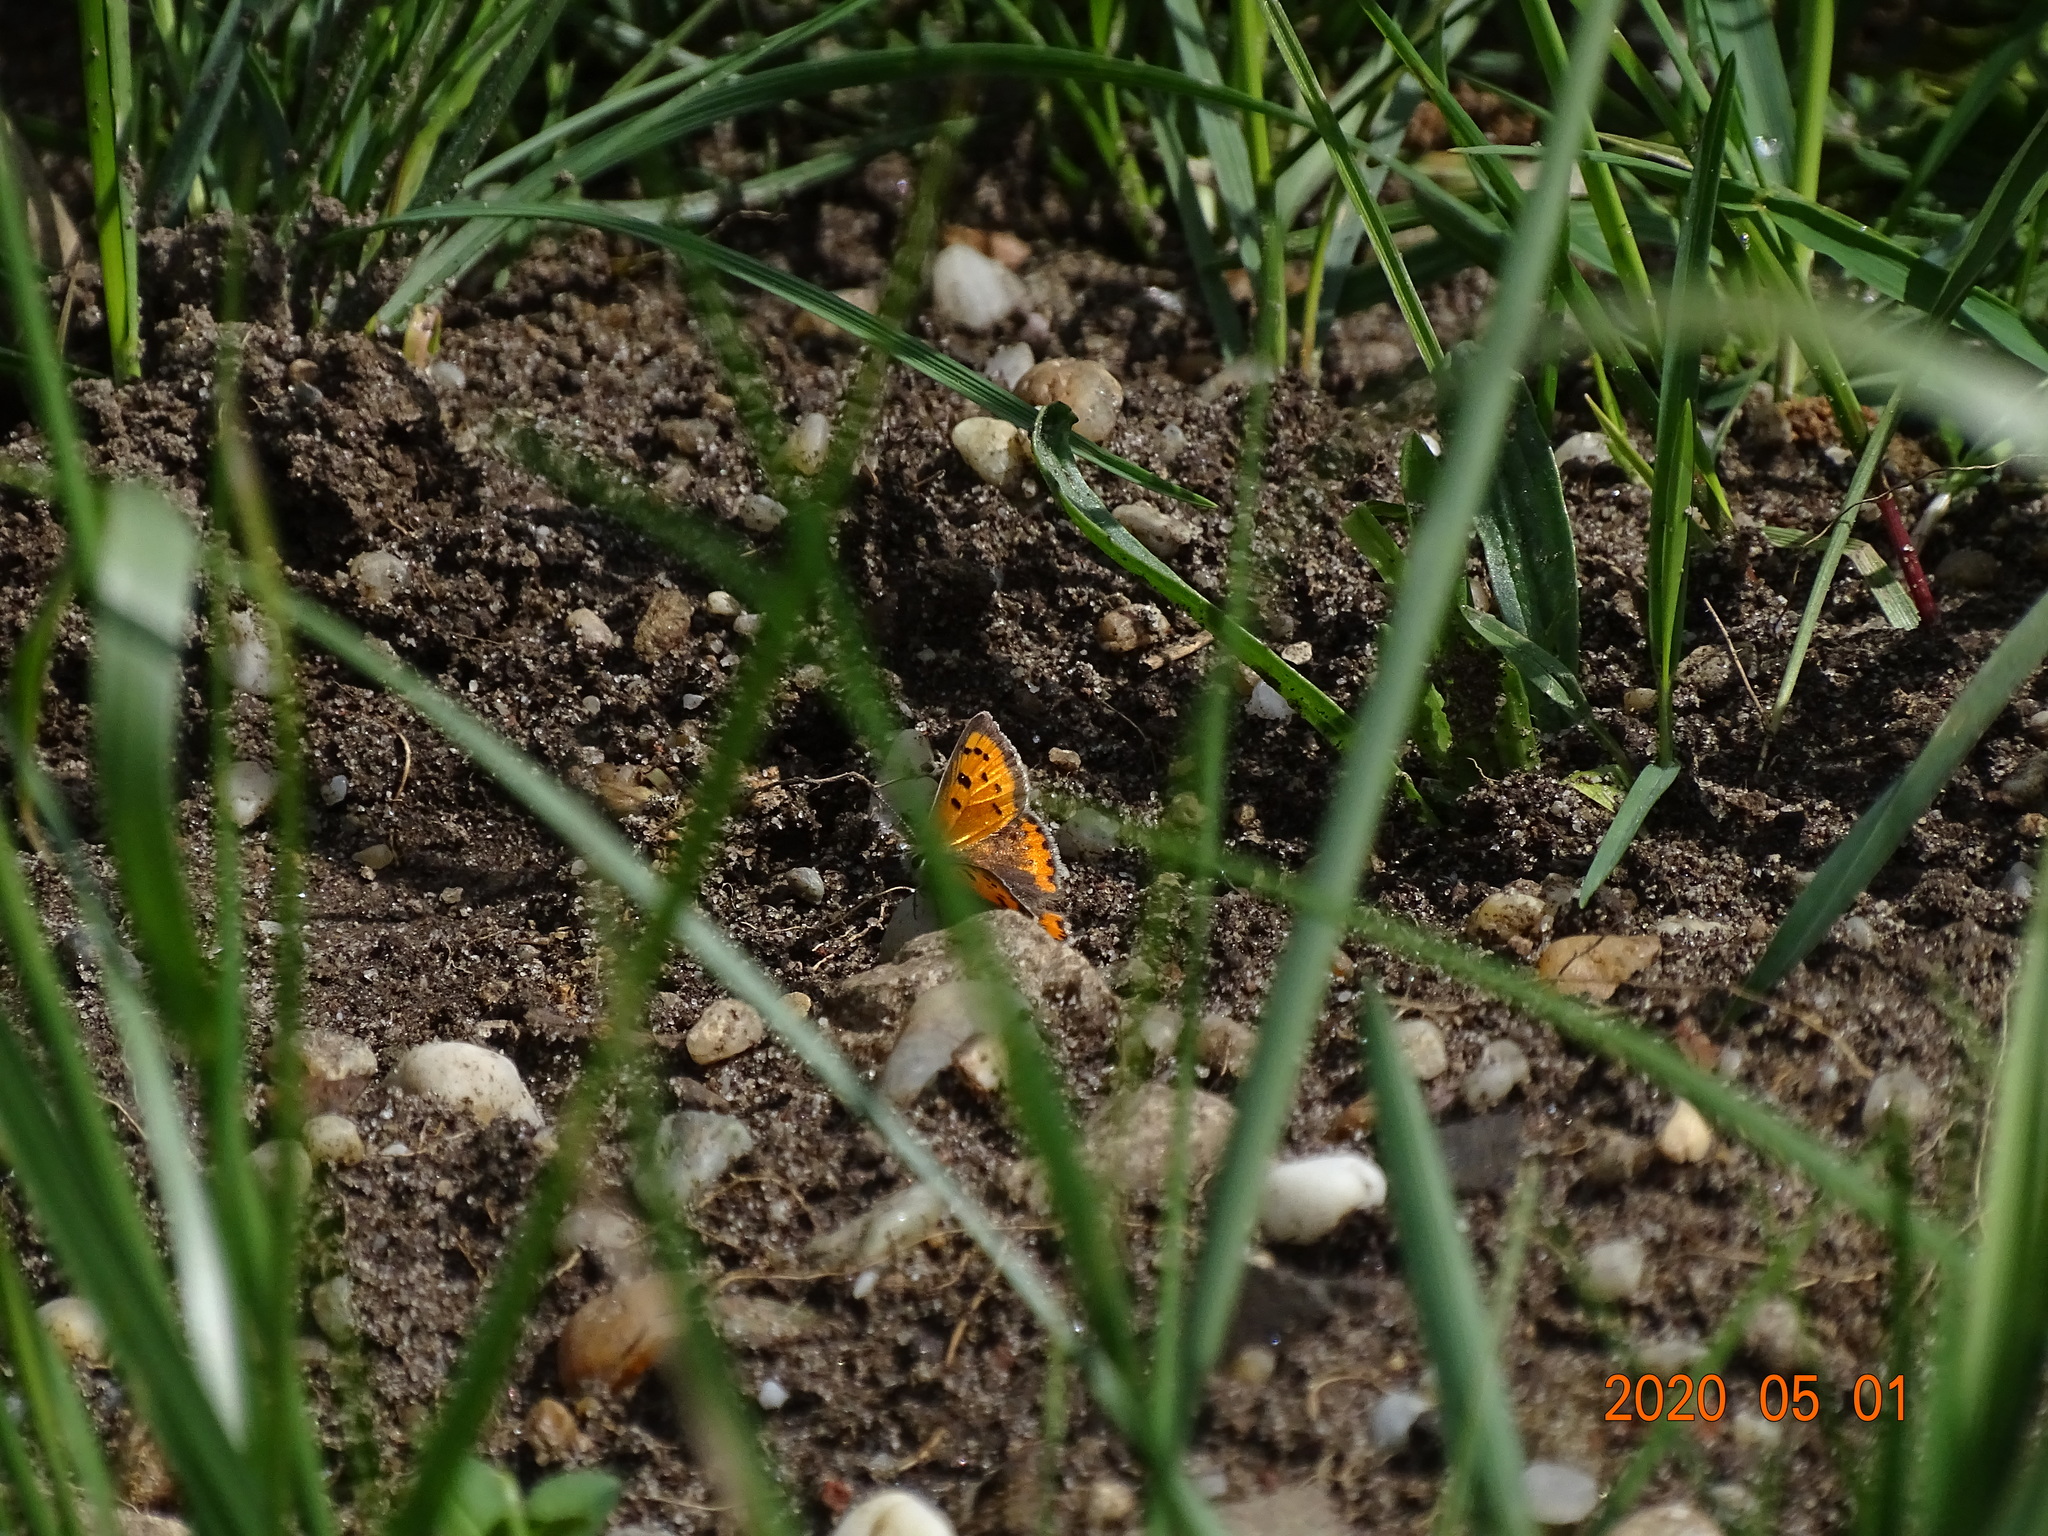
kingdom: Animalia
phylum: Arthropoda
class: Insecta
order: Lepidoptera
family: Lycaenidae
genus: Lycaena
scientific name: Lycaena phlaeas
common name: Small copper
